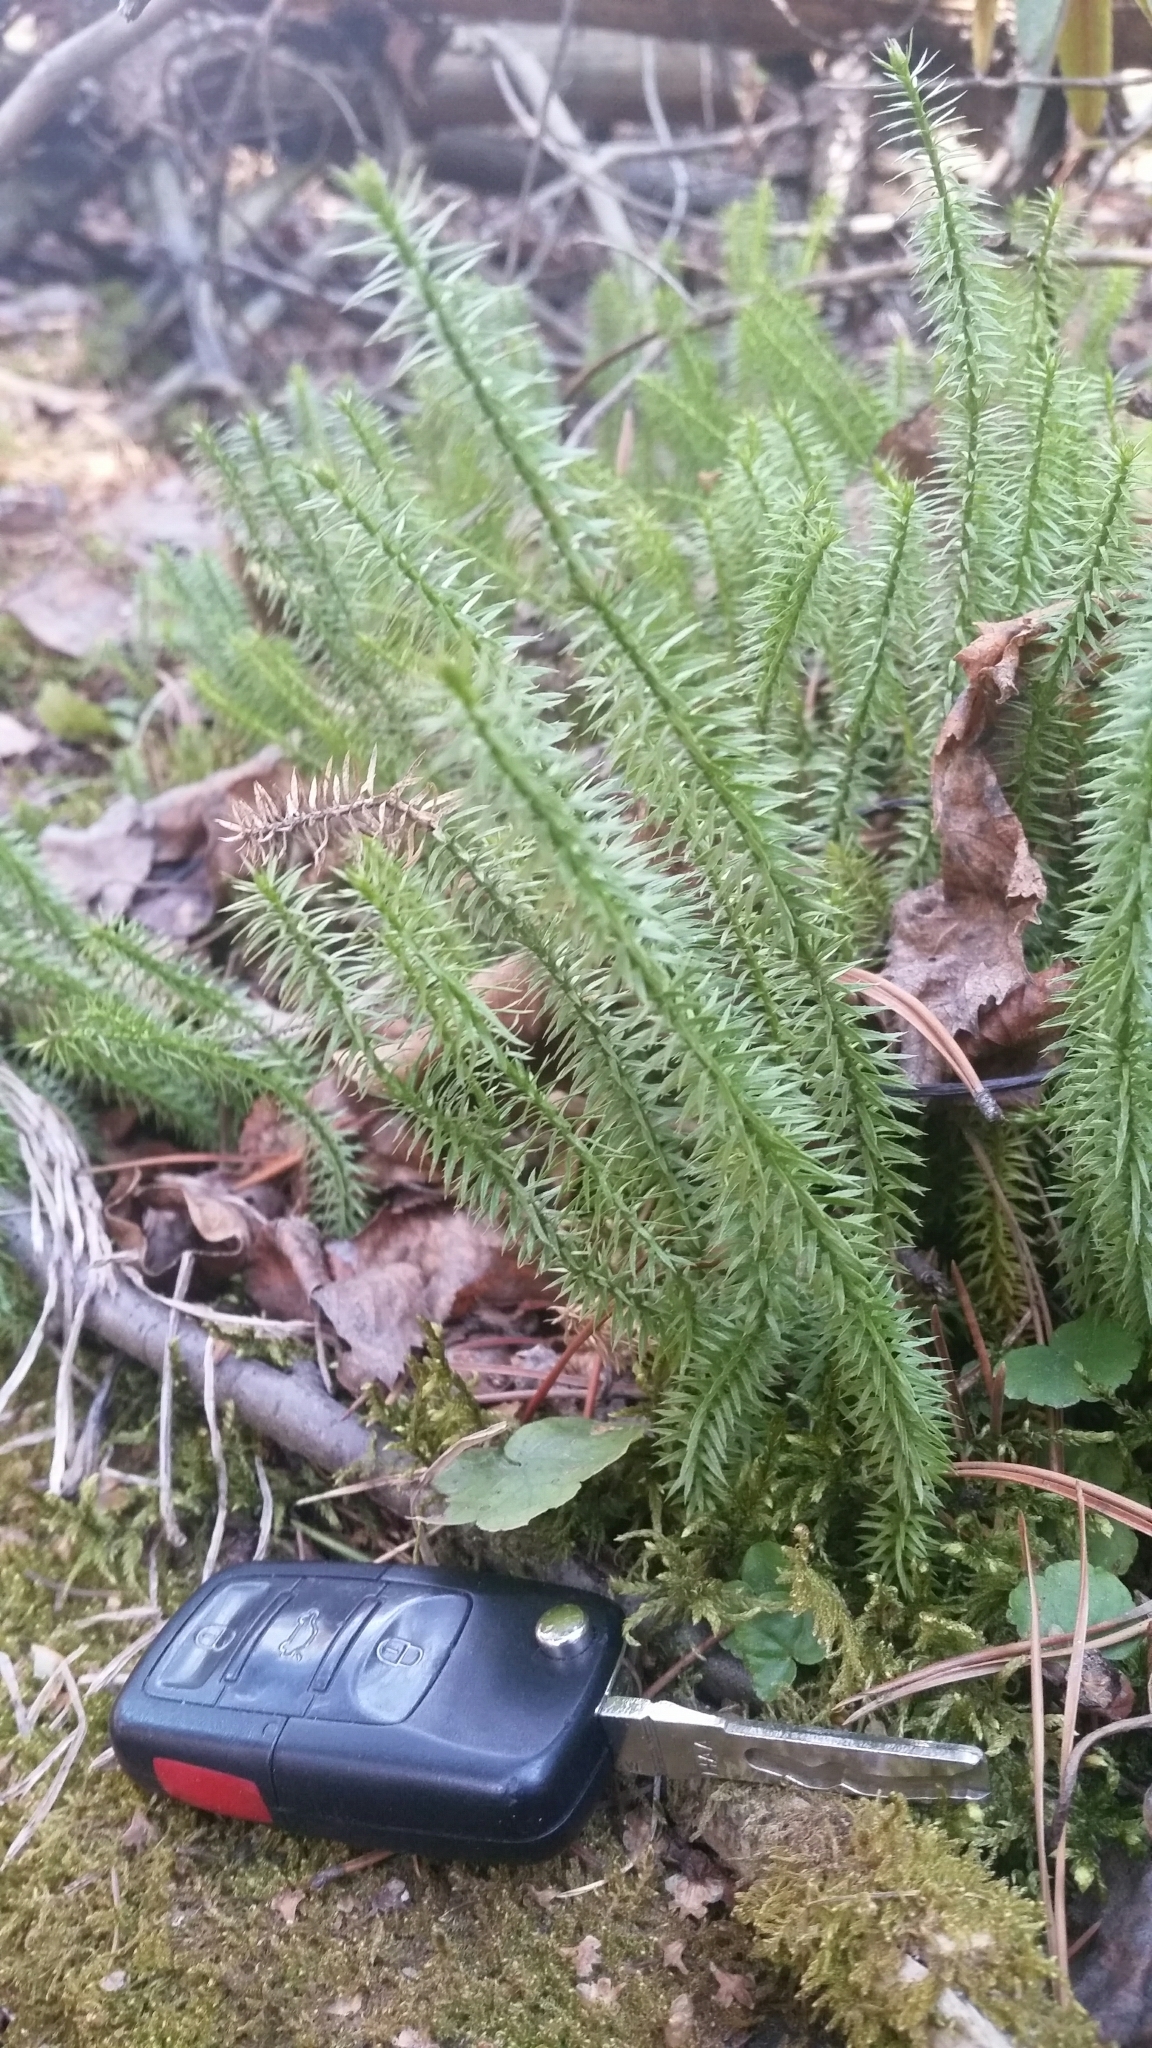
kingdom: Plantae
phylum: Tracheophyta
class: Lycopodiopsida
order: Lycopodiales
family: Lycopodiaceae
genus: Spinulum
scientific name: Spinulum annotinum
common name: Interrupted club-moss
